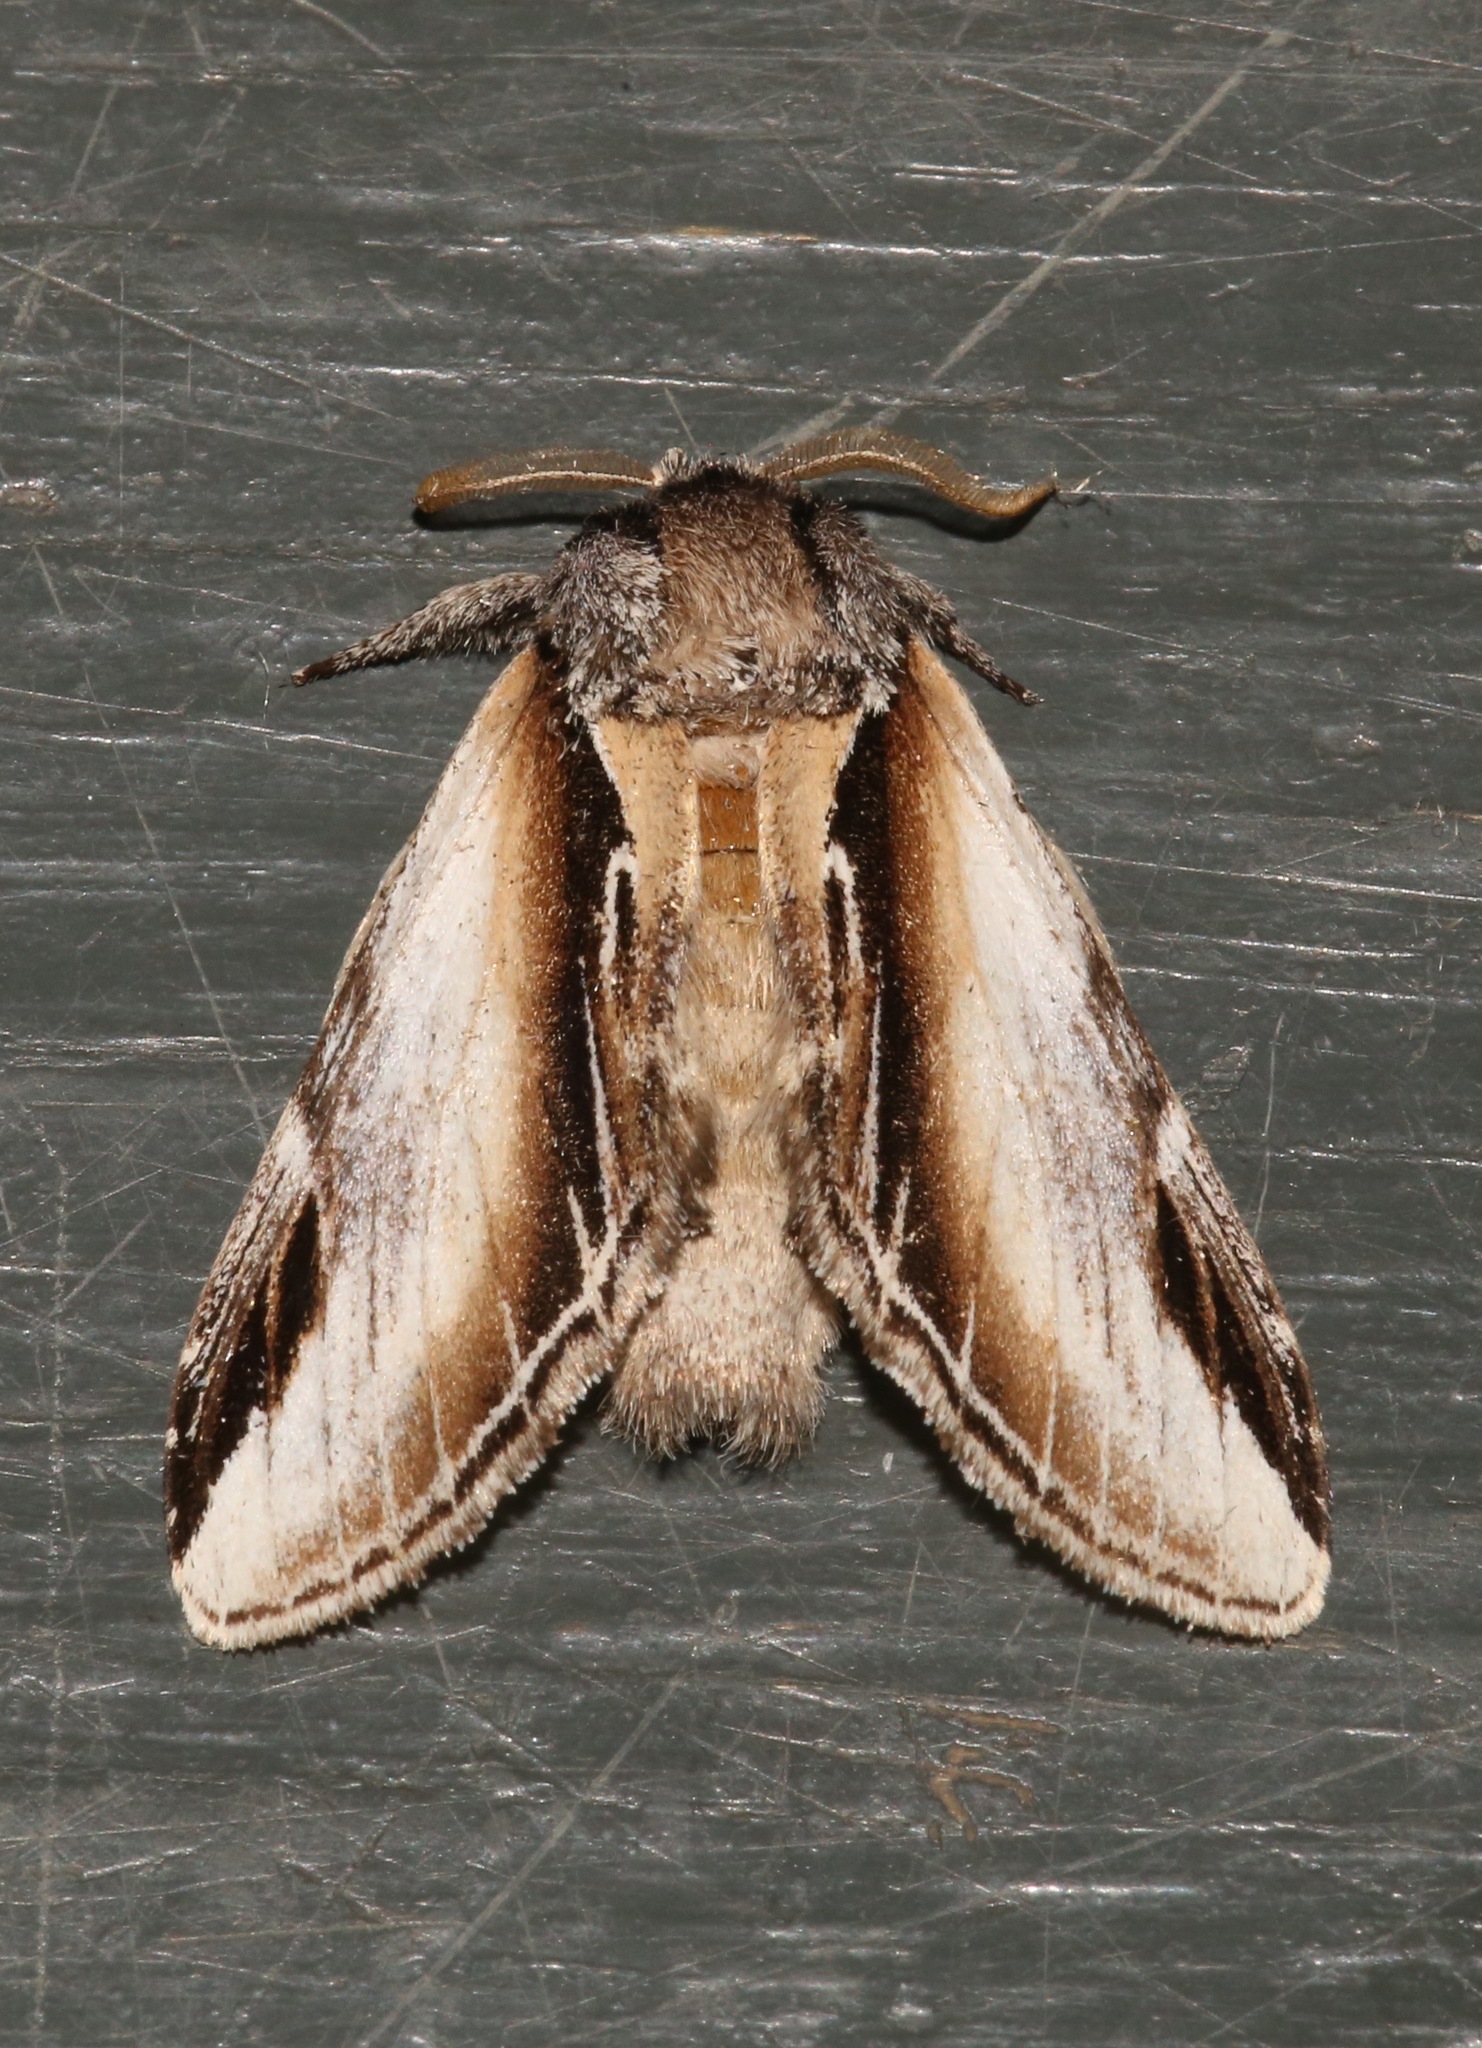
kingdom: Animalia
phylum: Arthropoda
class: Insecta
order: Lepidoptera
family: Notodontidae
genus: Pheosia
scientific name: Pheosia rimosa
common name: Black-rimmed prominent
